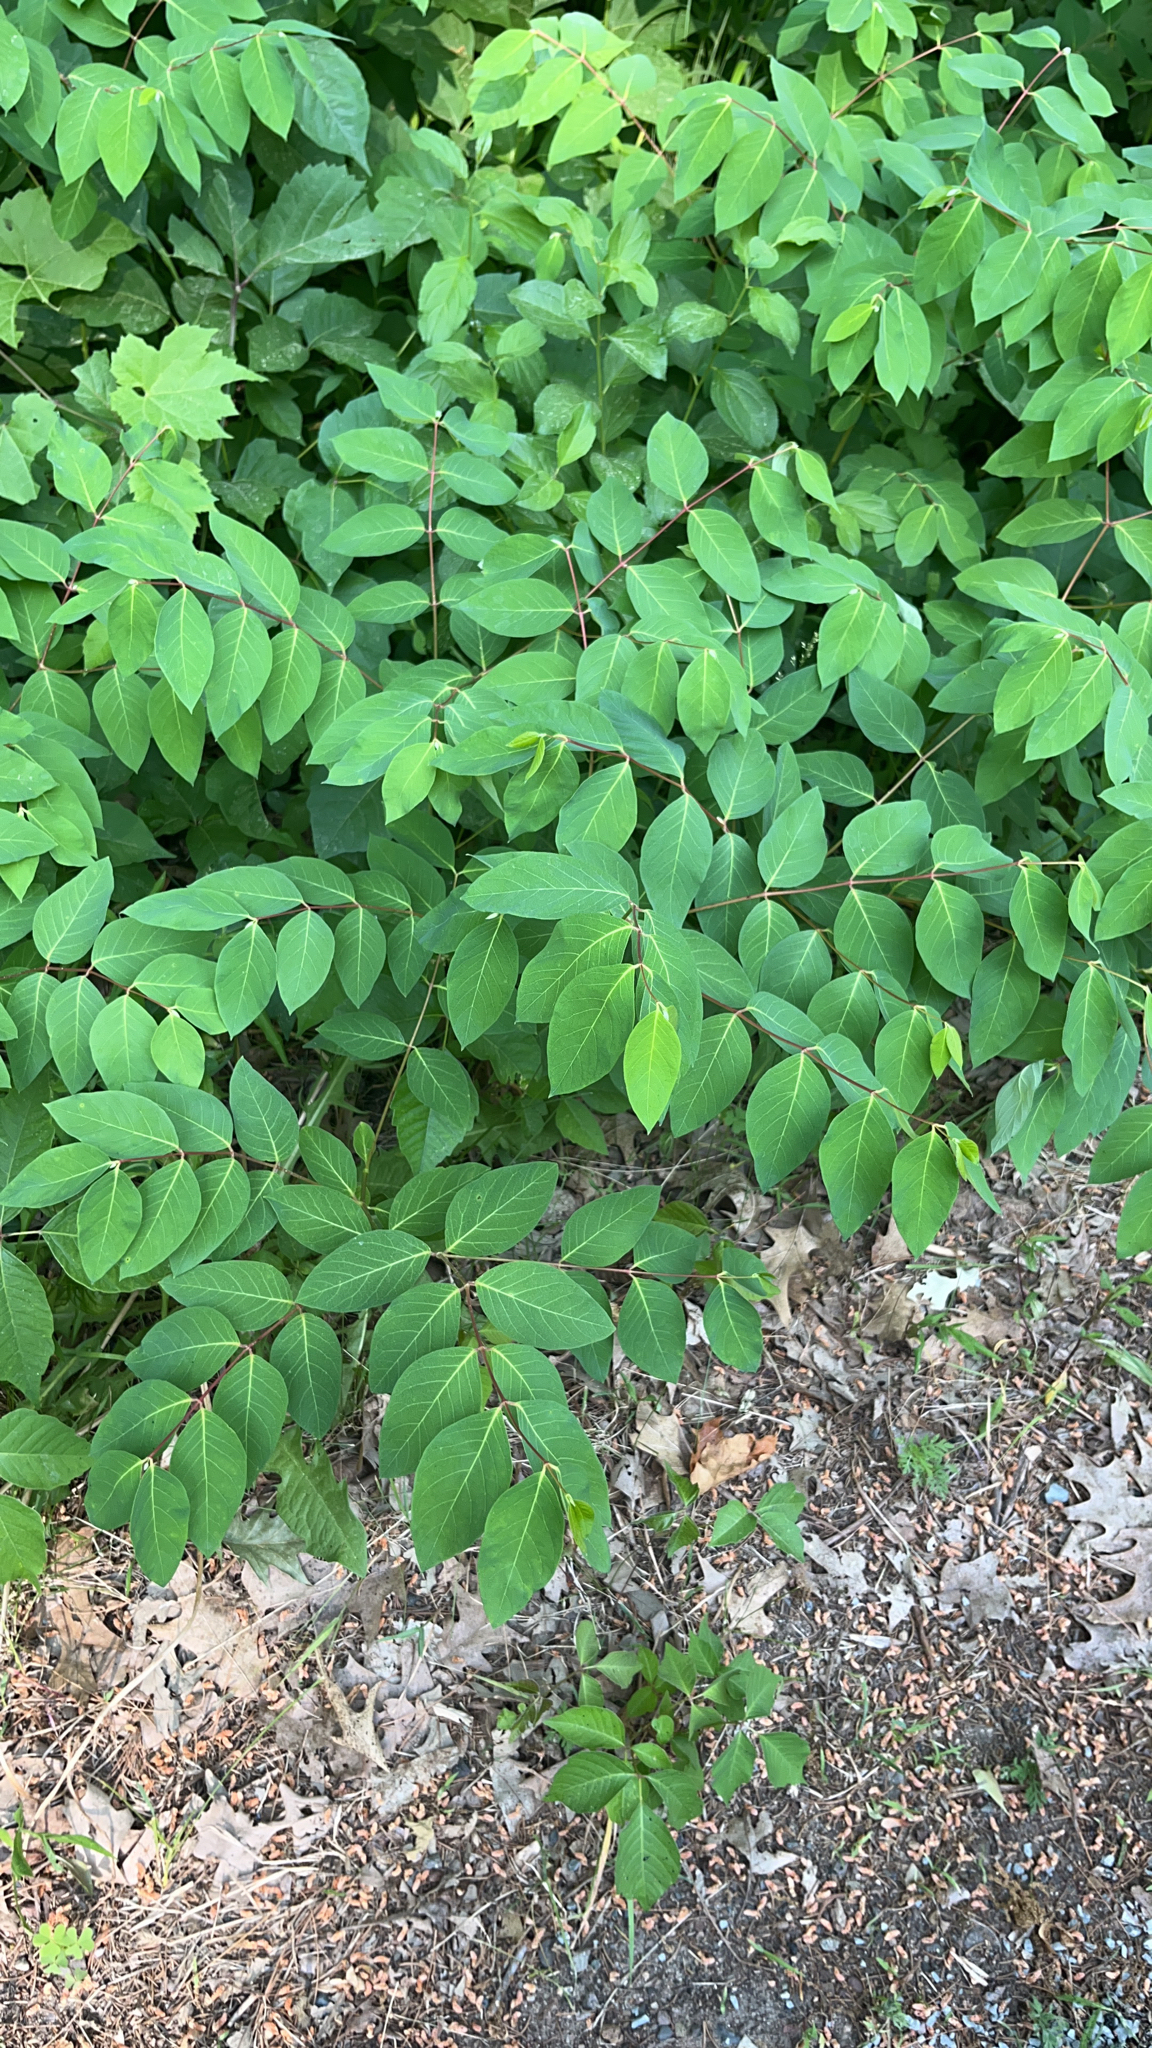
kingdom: Plantae
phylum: Tracheophyta
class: Magnoliopsida
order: Gentianales
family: Apocynaceae
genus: Apocynum
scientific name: Apocynum androsaemifolium
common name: Spreading dogbane
